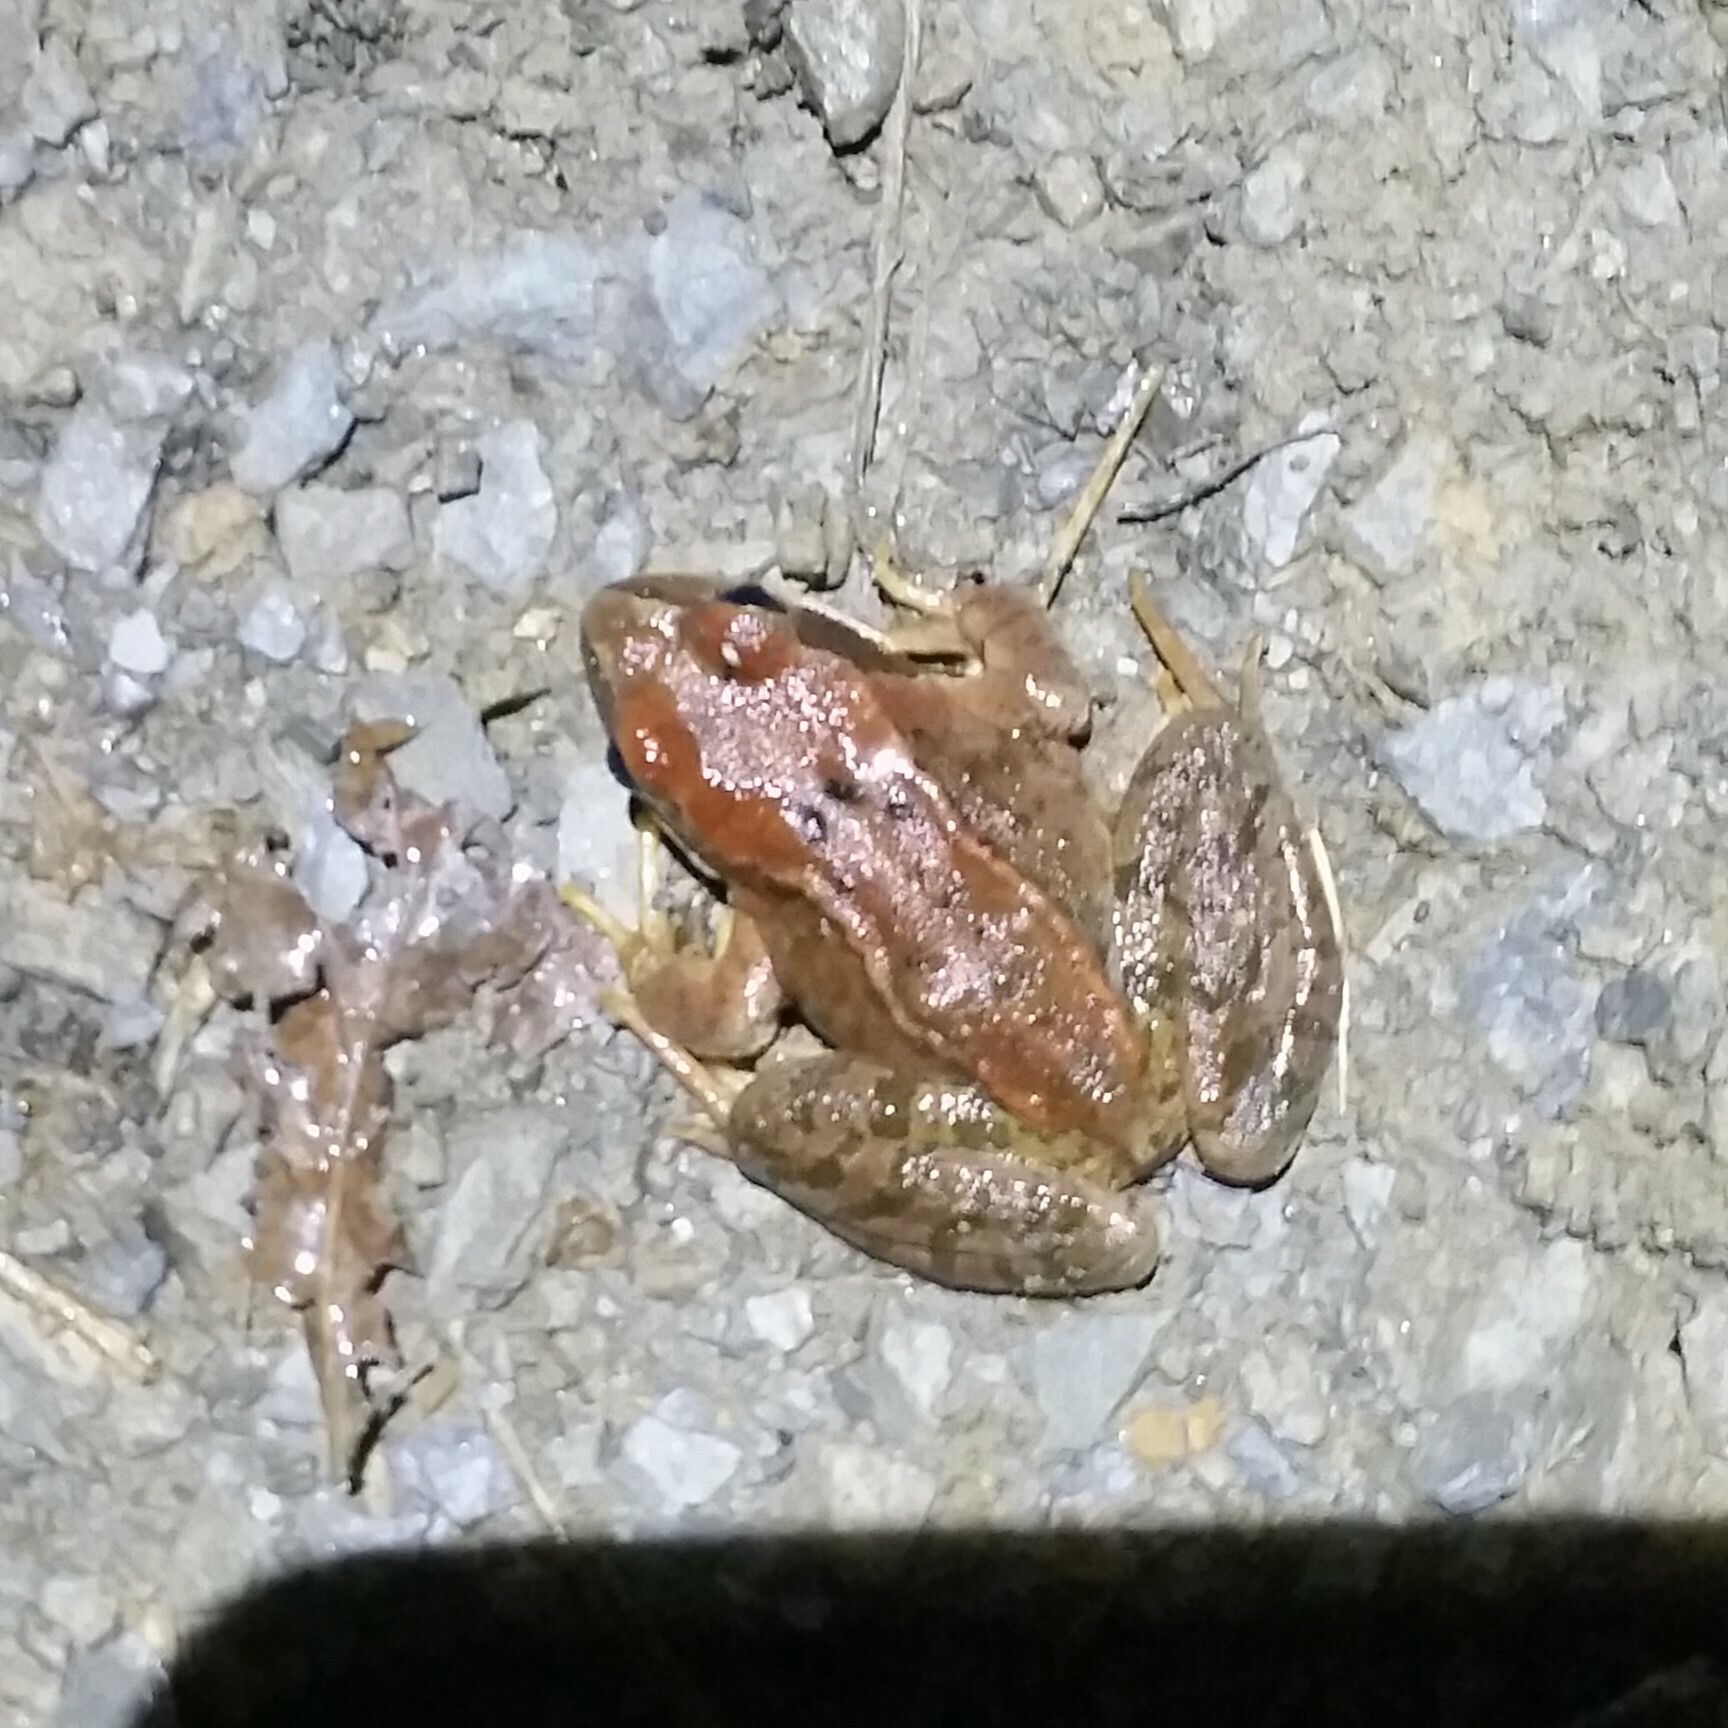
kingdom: Animalia
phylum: Chordata
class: Amphibia
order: Anura
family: Ranidae
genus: Rana
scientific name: Rana temporaria
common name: Common frog
